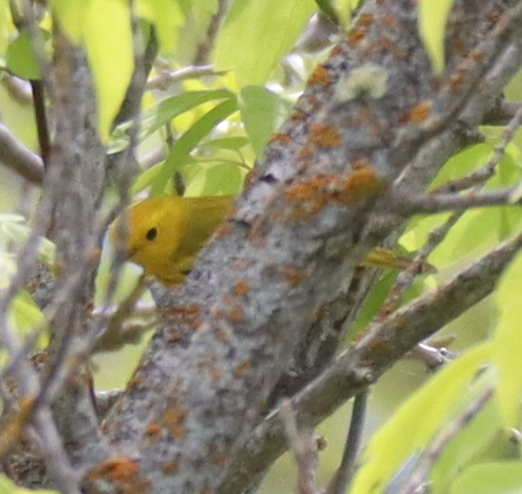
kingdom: Animalia
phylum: Chordata
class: Aves
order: Passeriformes
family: Parulidae
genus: Setophaga
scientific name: Setophaga petechia
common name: Yellow warbler
